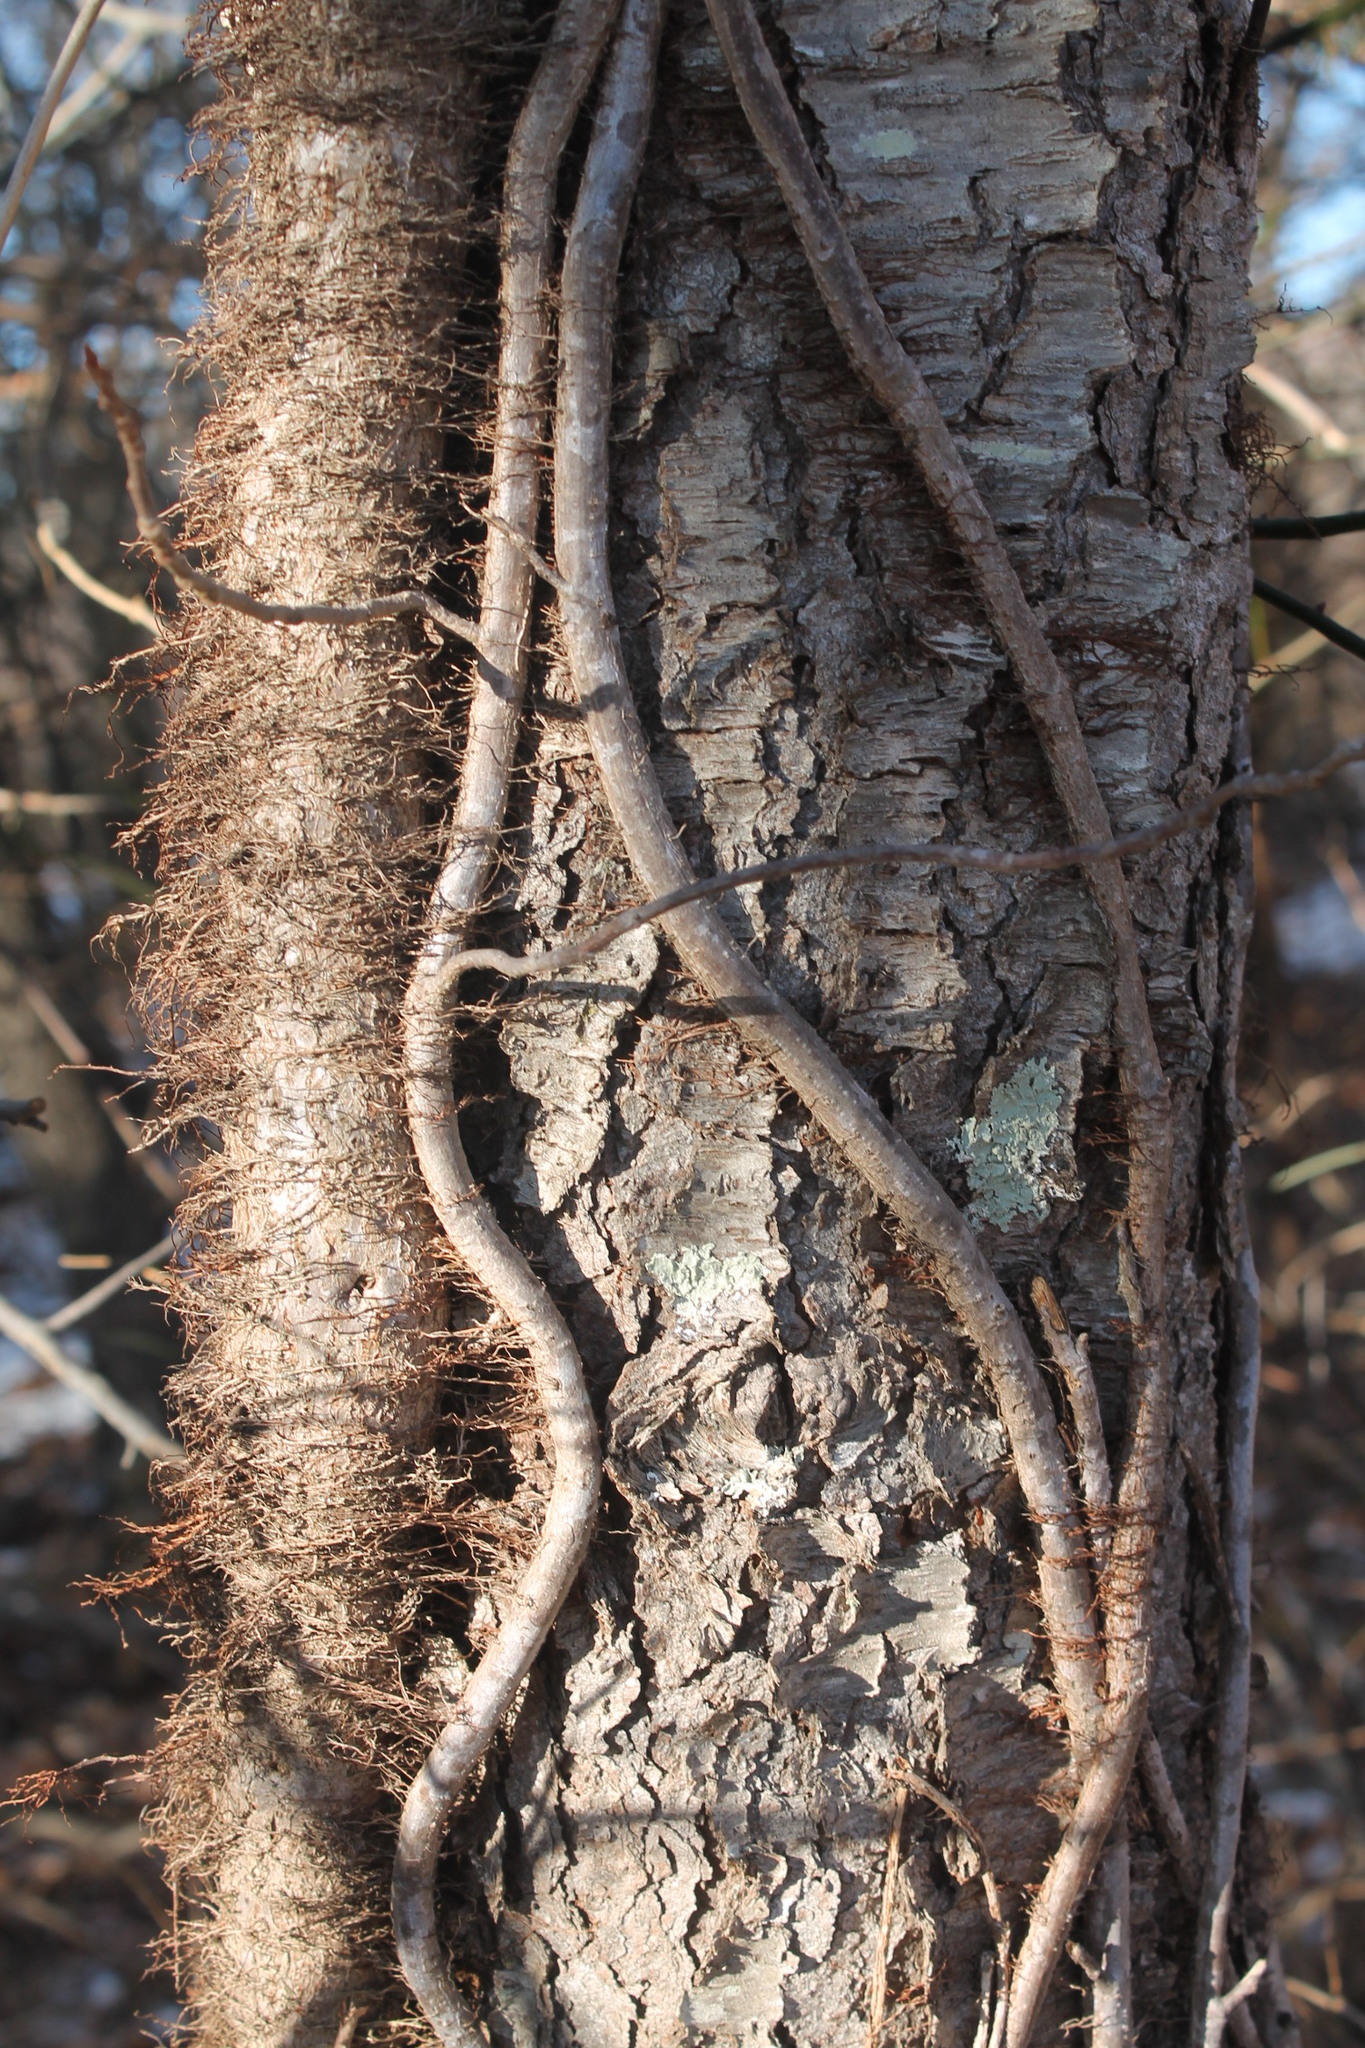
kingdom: Plantae
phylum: Tracheophyta
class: Magnoliopsida
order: Sapindales
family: Anacardiaceae
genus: Toxicodendron
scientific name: Toxicodendron radicans
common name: Poison ivy
